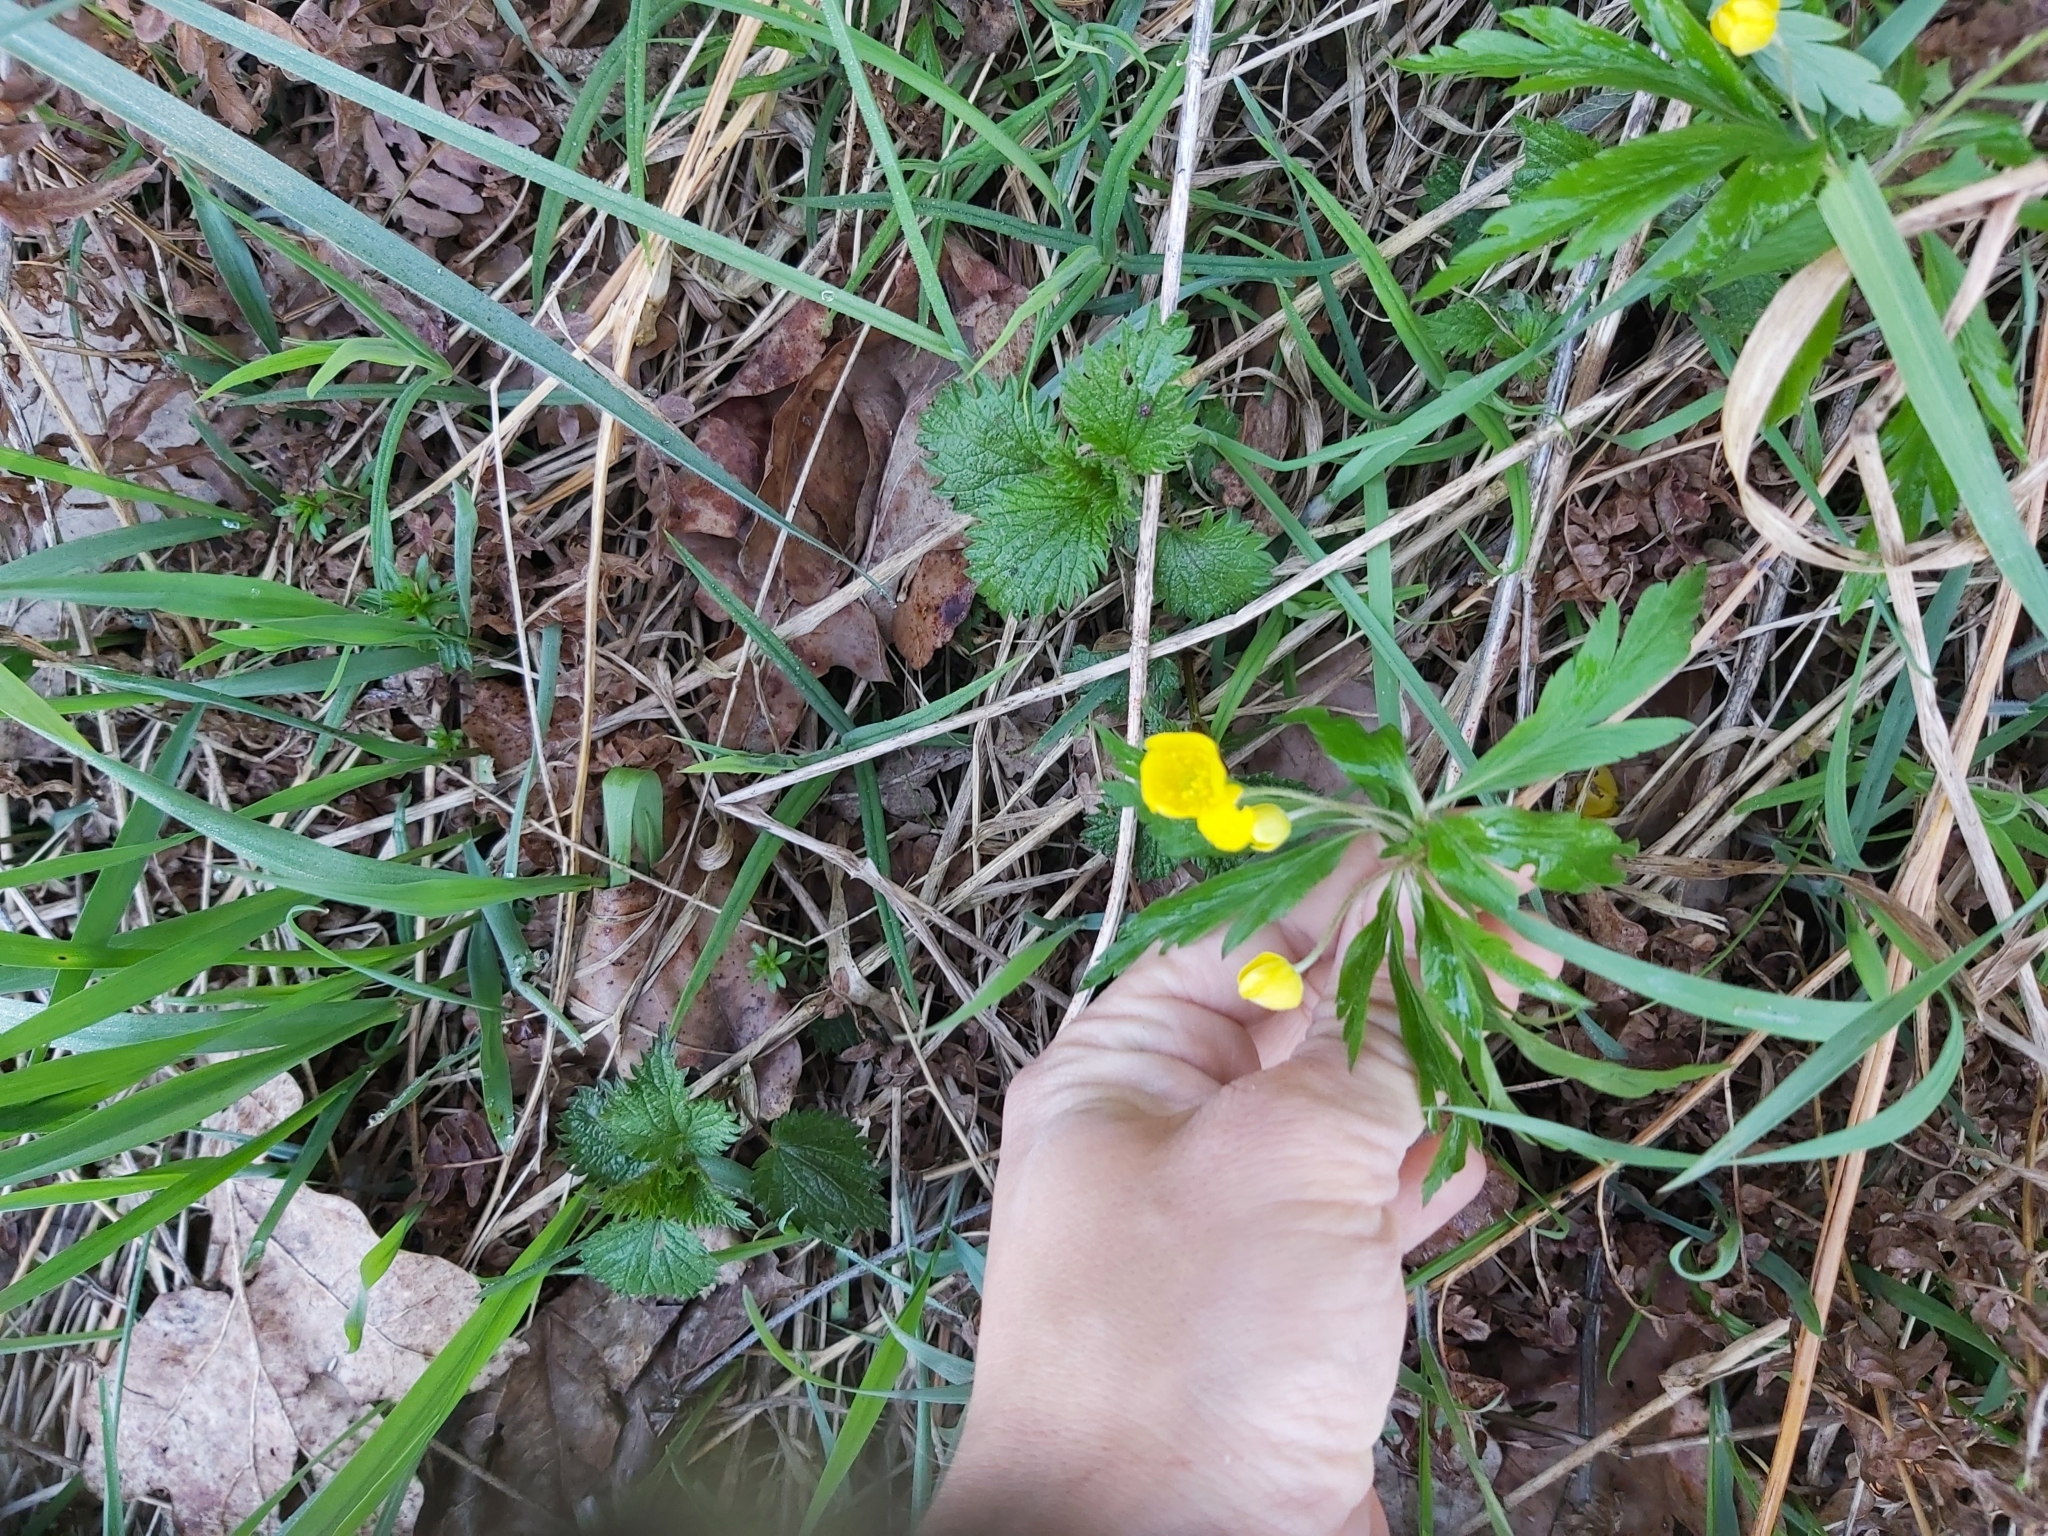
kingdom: Plantae
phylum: Tracheophyta
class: Magnoliopsida
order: Ranunculales
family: Ranunculaceae
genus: Anemone
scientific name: Anemone ranunculoides
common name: Yellow anemone
